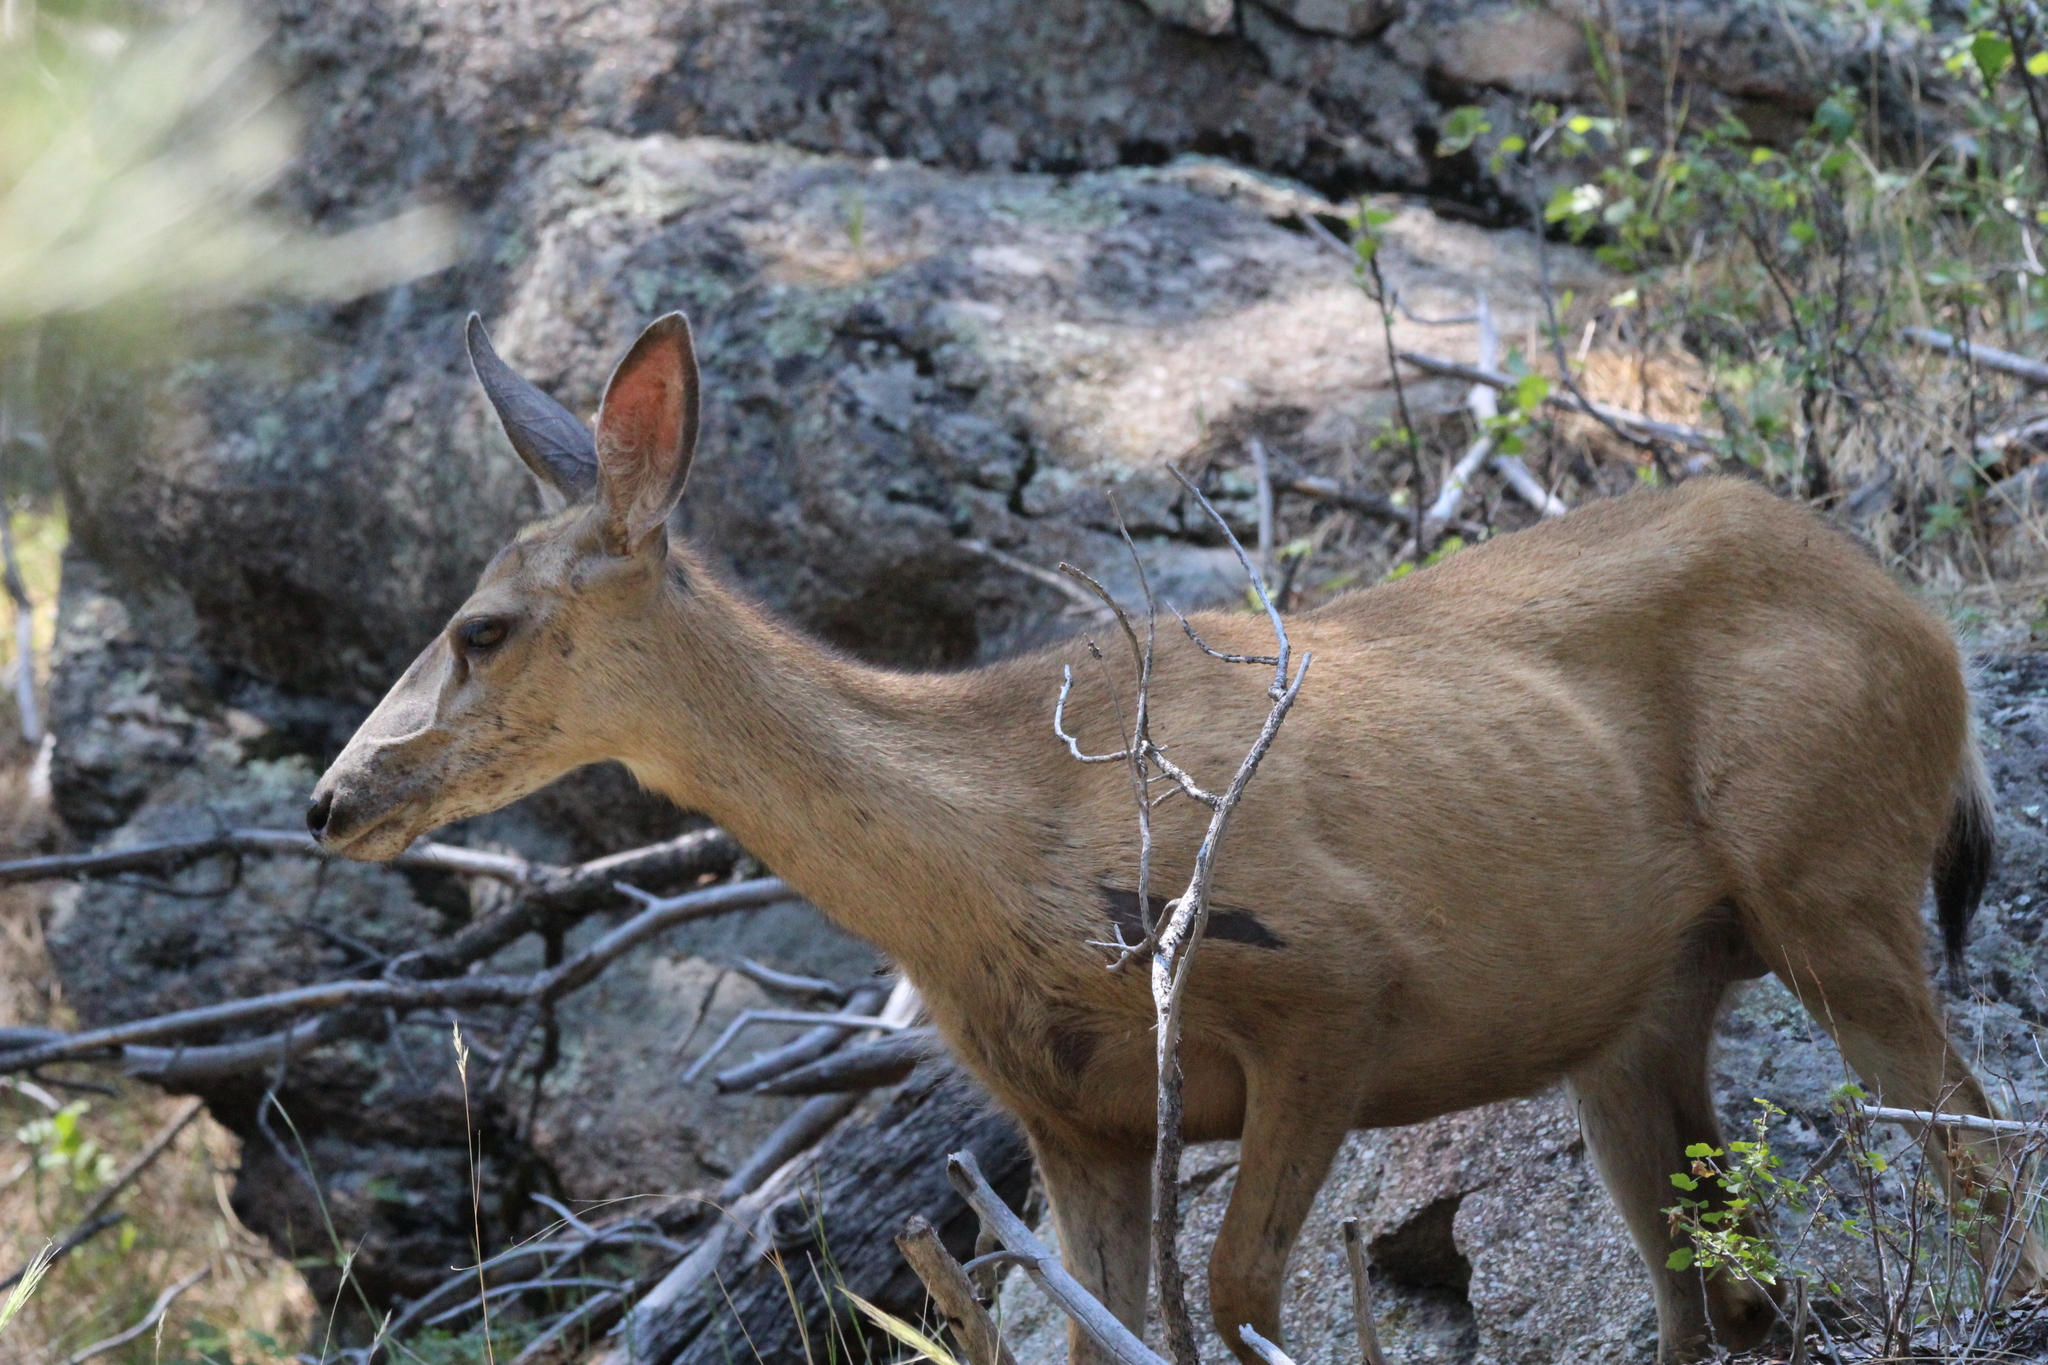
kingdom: Animalia
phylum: Chordata
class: Mammalia
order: Artiodactyla
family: Cervidae
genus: Odocoileus
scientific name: Odocoileus hemionus
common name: Mule deer
